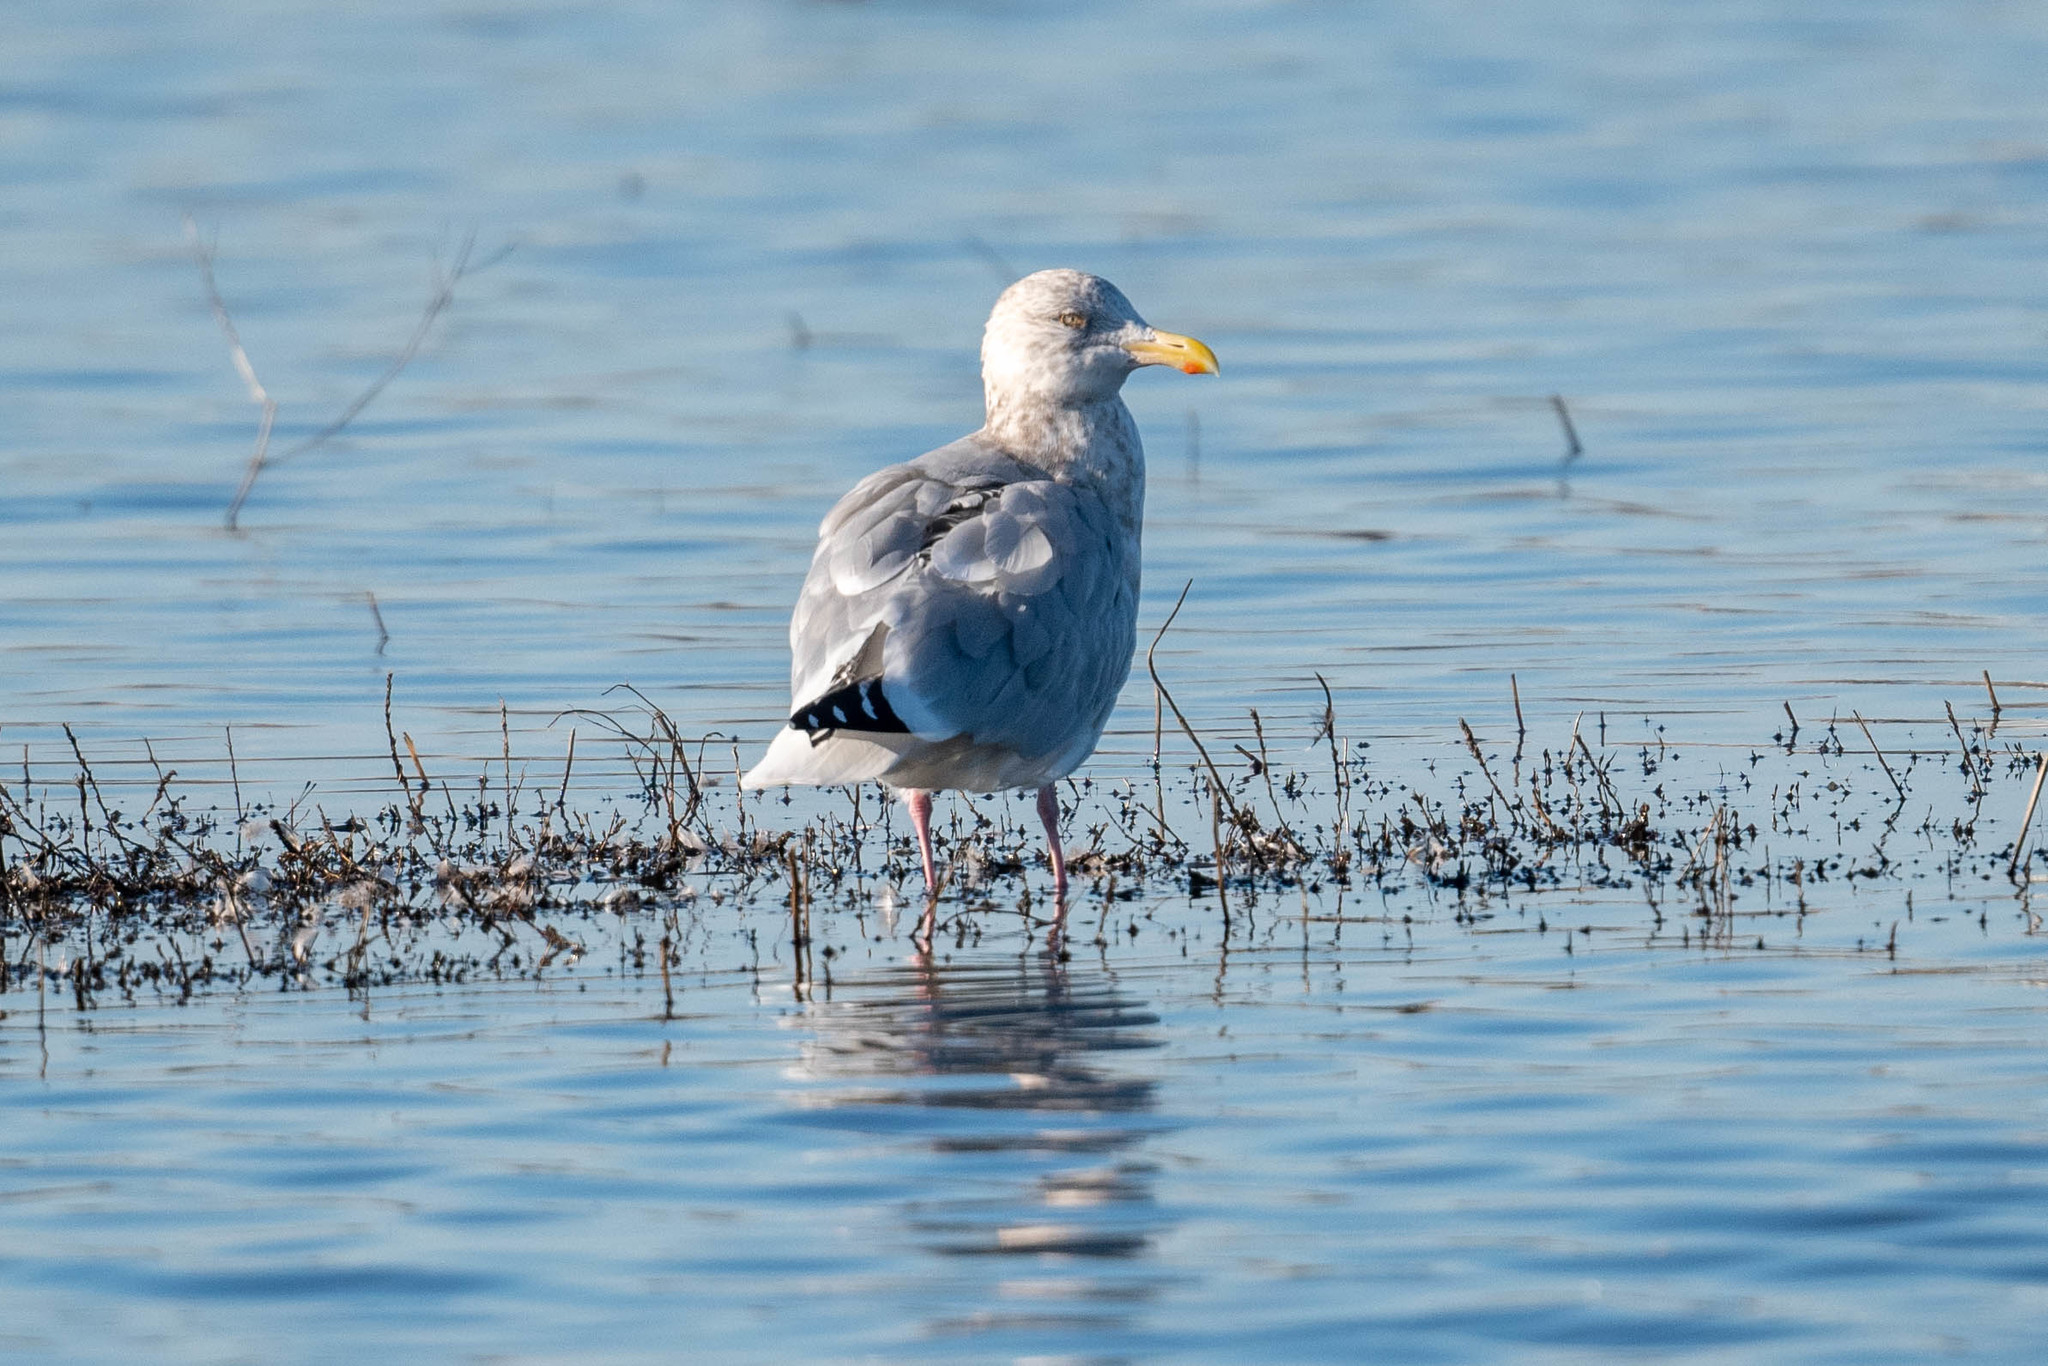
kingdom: Animalia
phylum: Chordata
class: Aves
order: Charadriiformes
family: Laridae
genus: Larus
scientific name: Larus argentatus
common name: Herring gull
